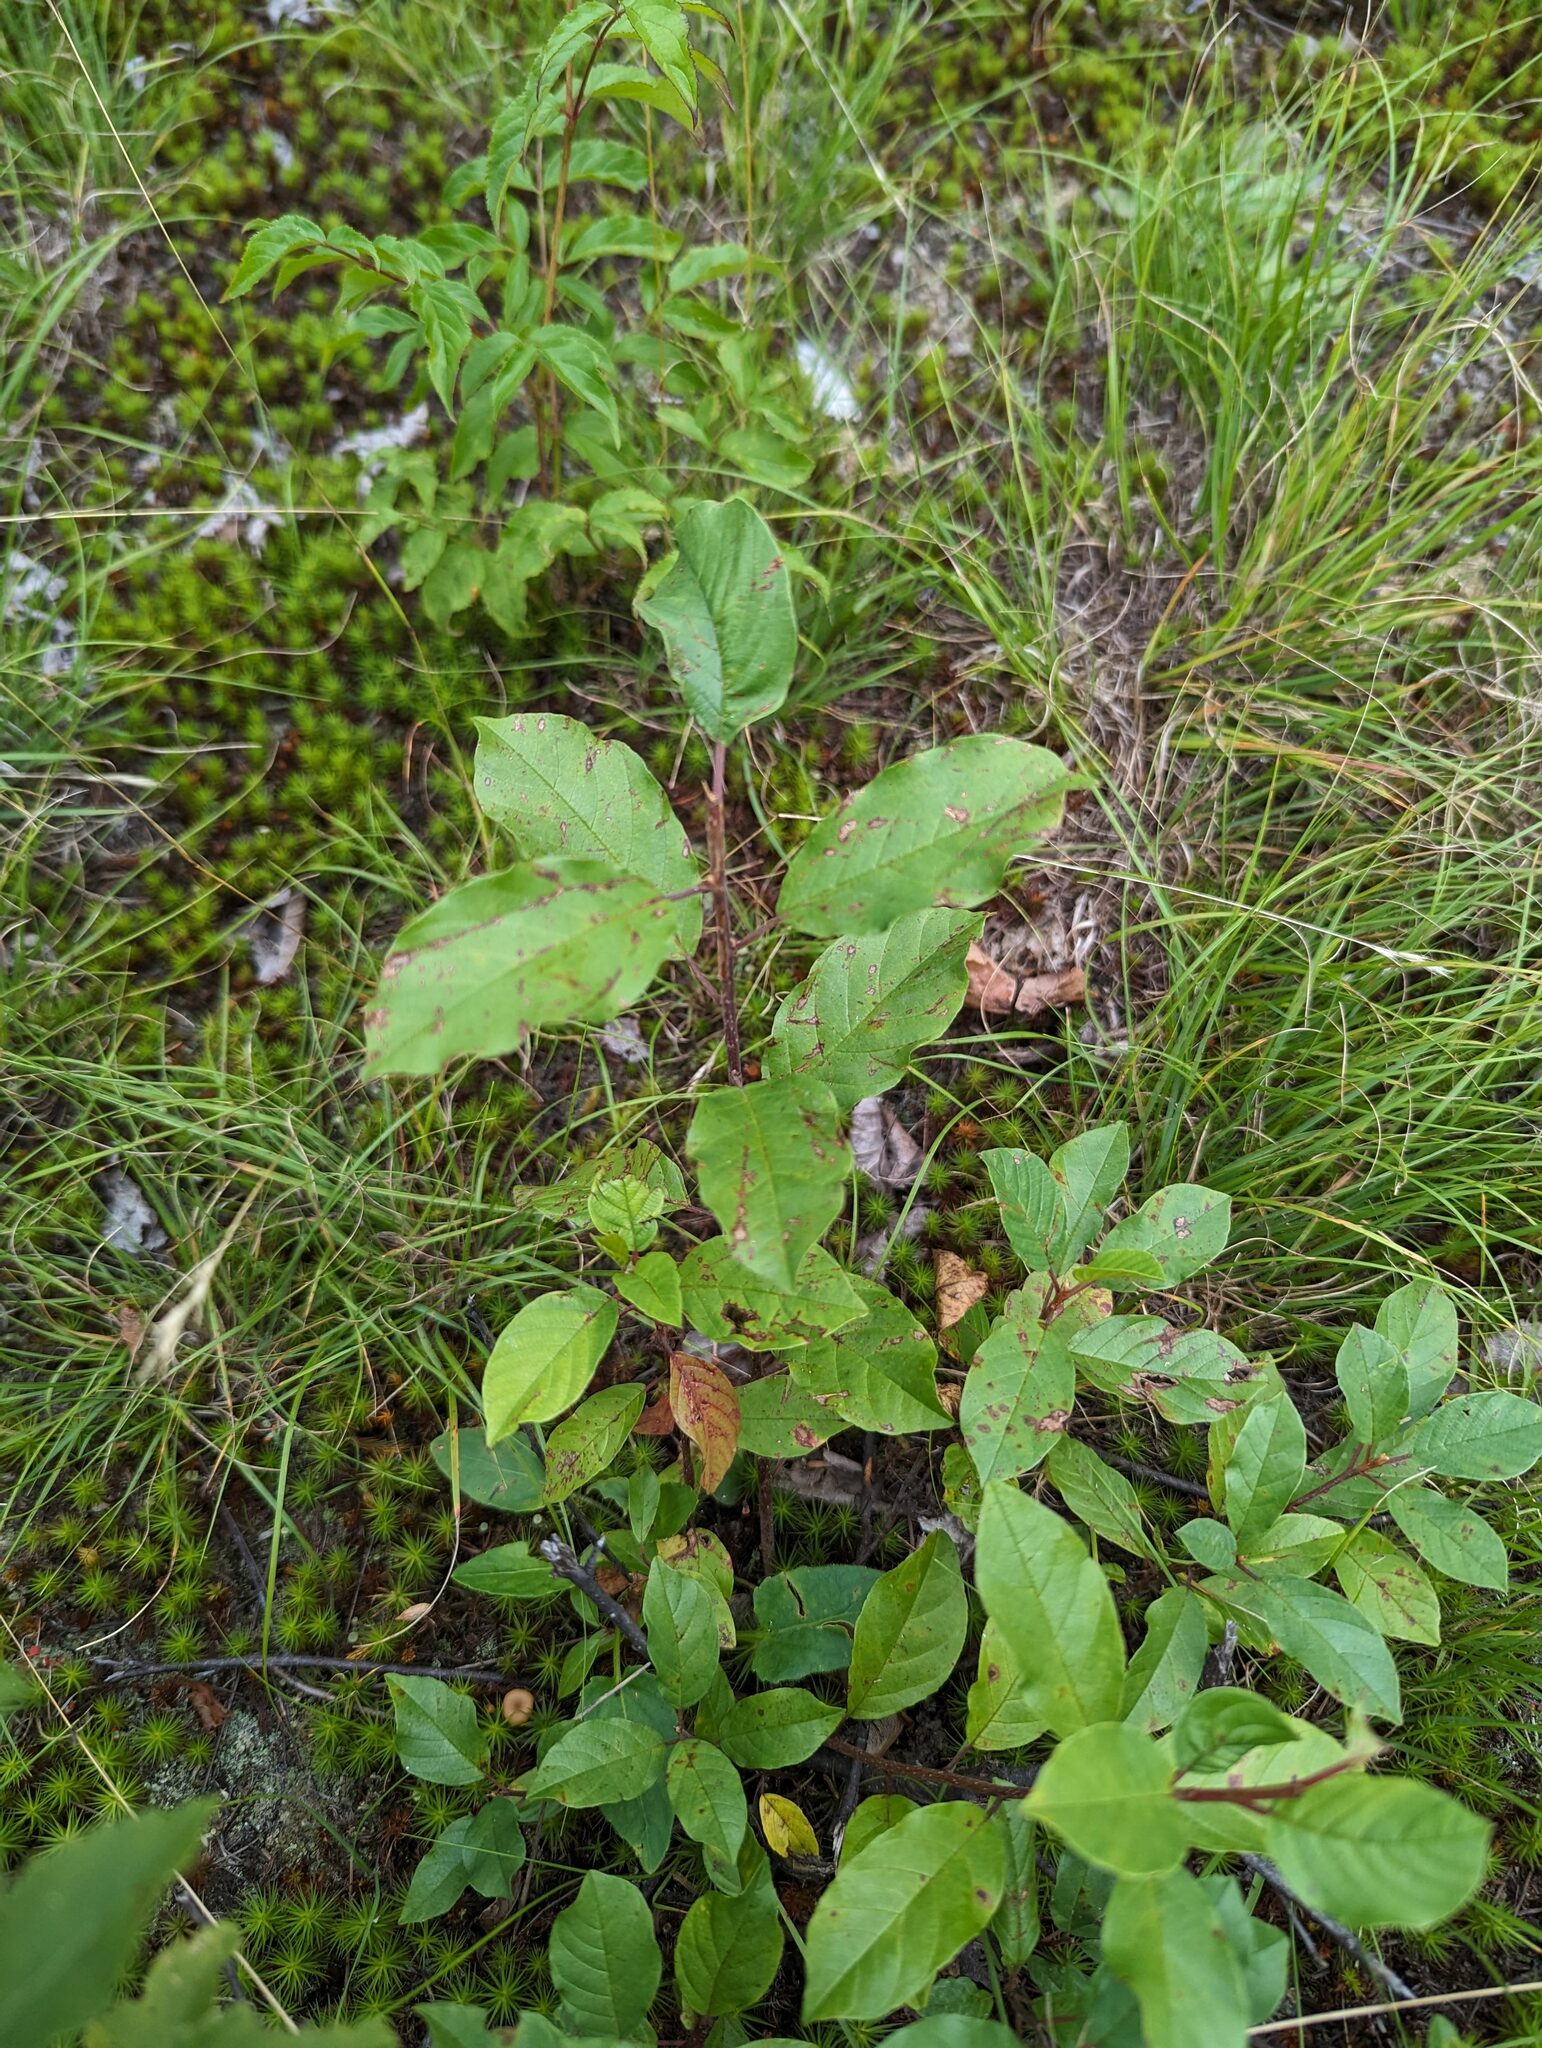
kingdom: Plantae
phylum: Tracheophyta
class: Magnoliopsida
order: Rosales
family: Rhamnaceae
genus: Frangula
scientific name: Frangula alnus
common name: Alder buckthorn
